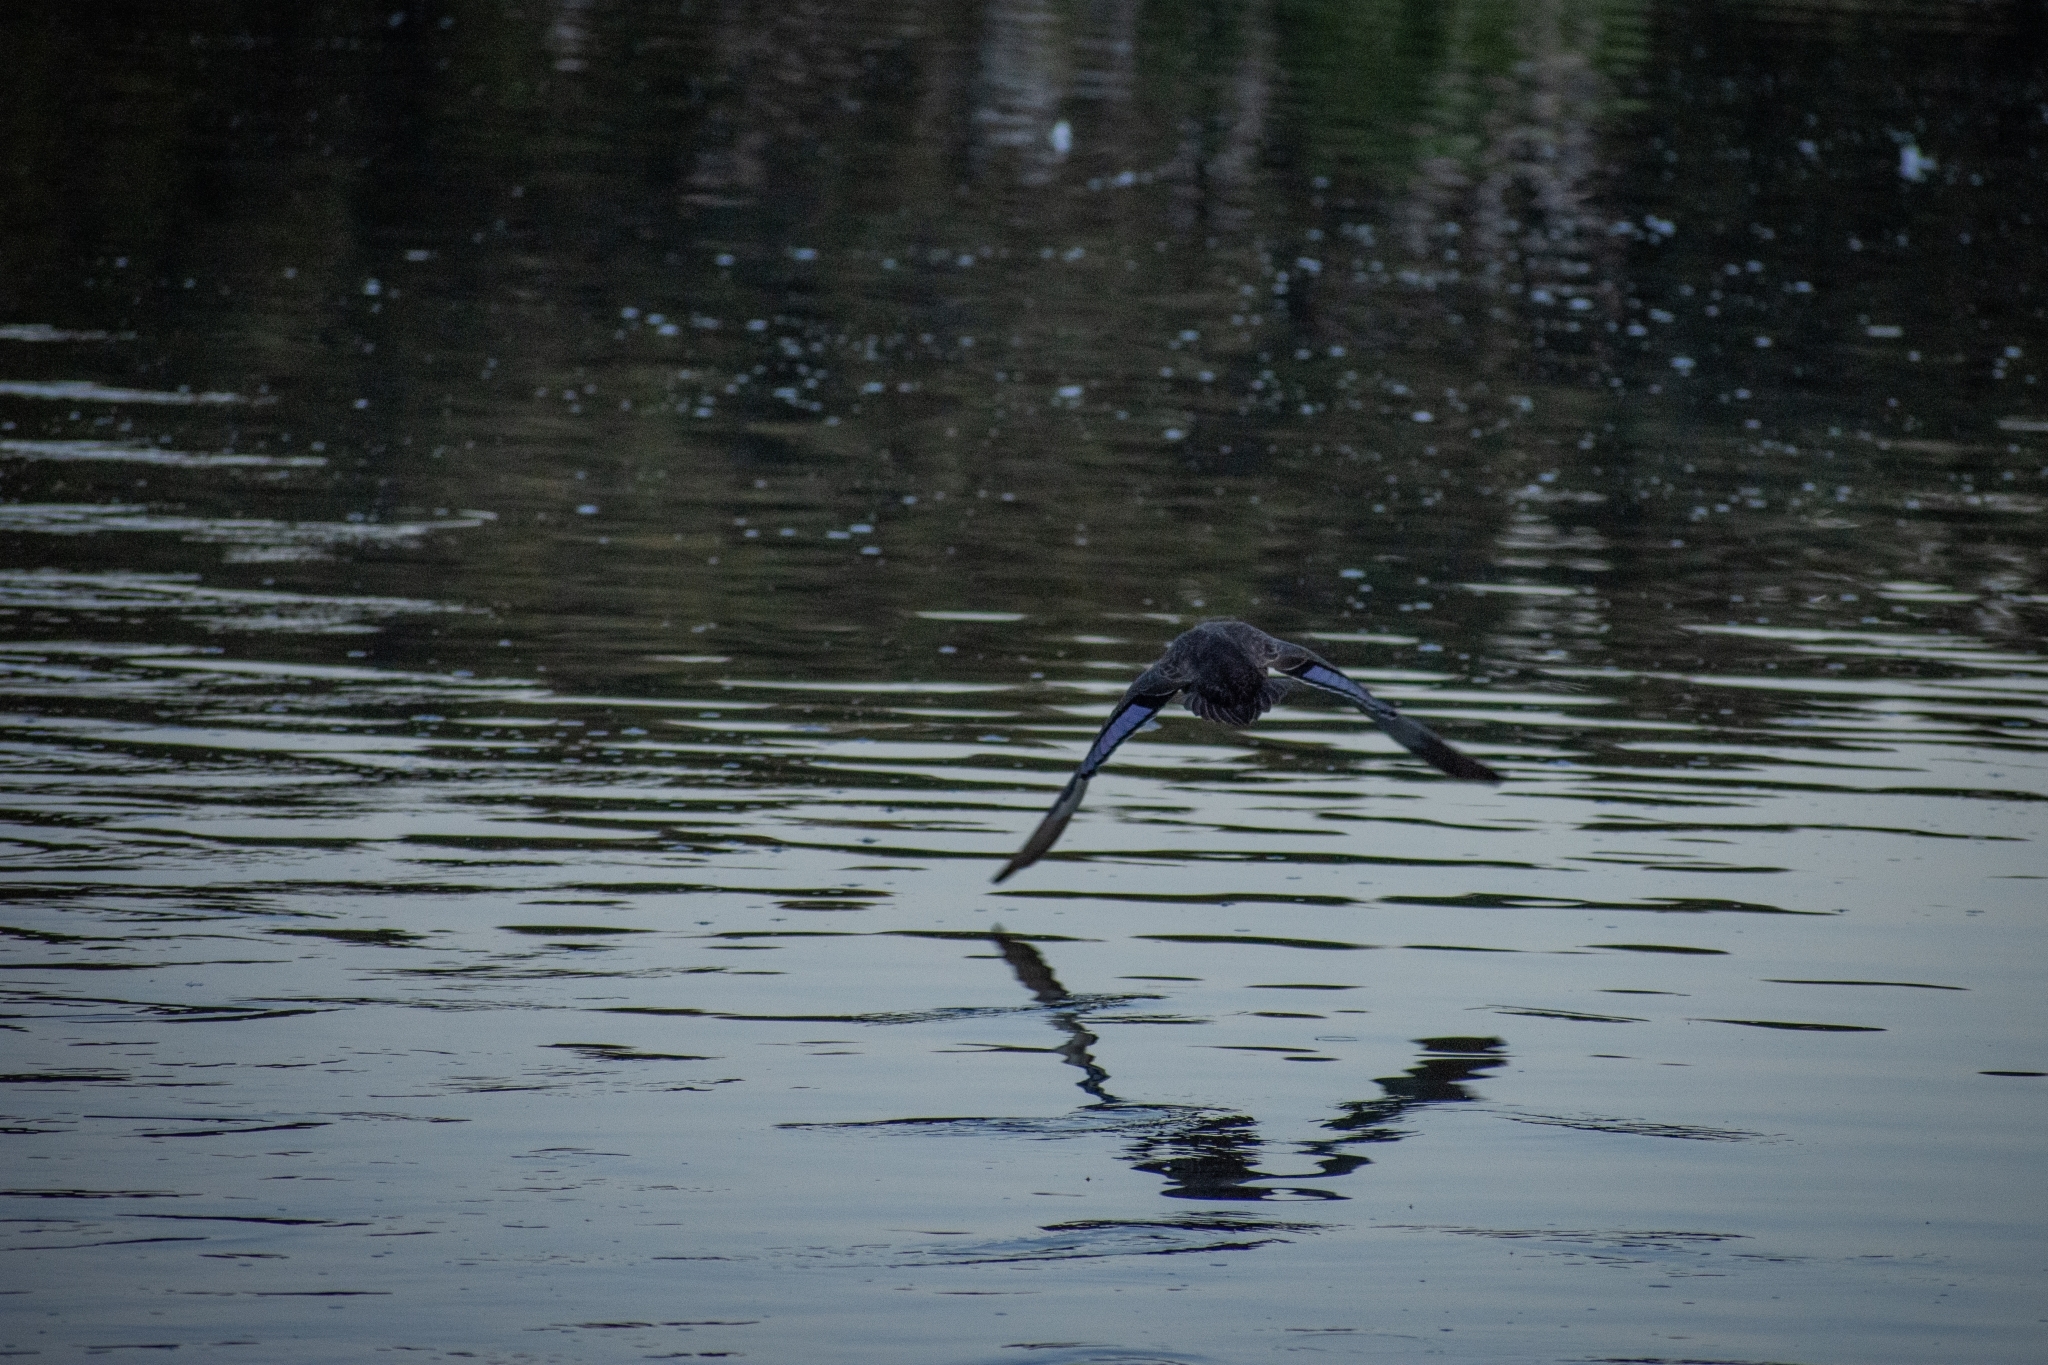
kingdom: Animalia
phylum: Chordata
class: Aves
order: Anseriformes
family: Anatidae
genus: Anas
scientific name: Anas superciliosa
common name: Pacific black duck
